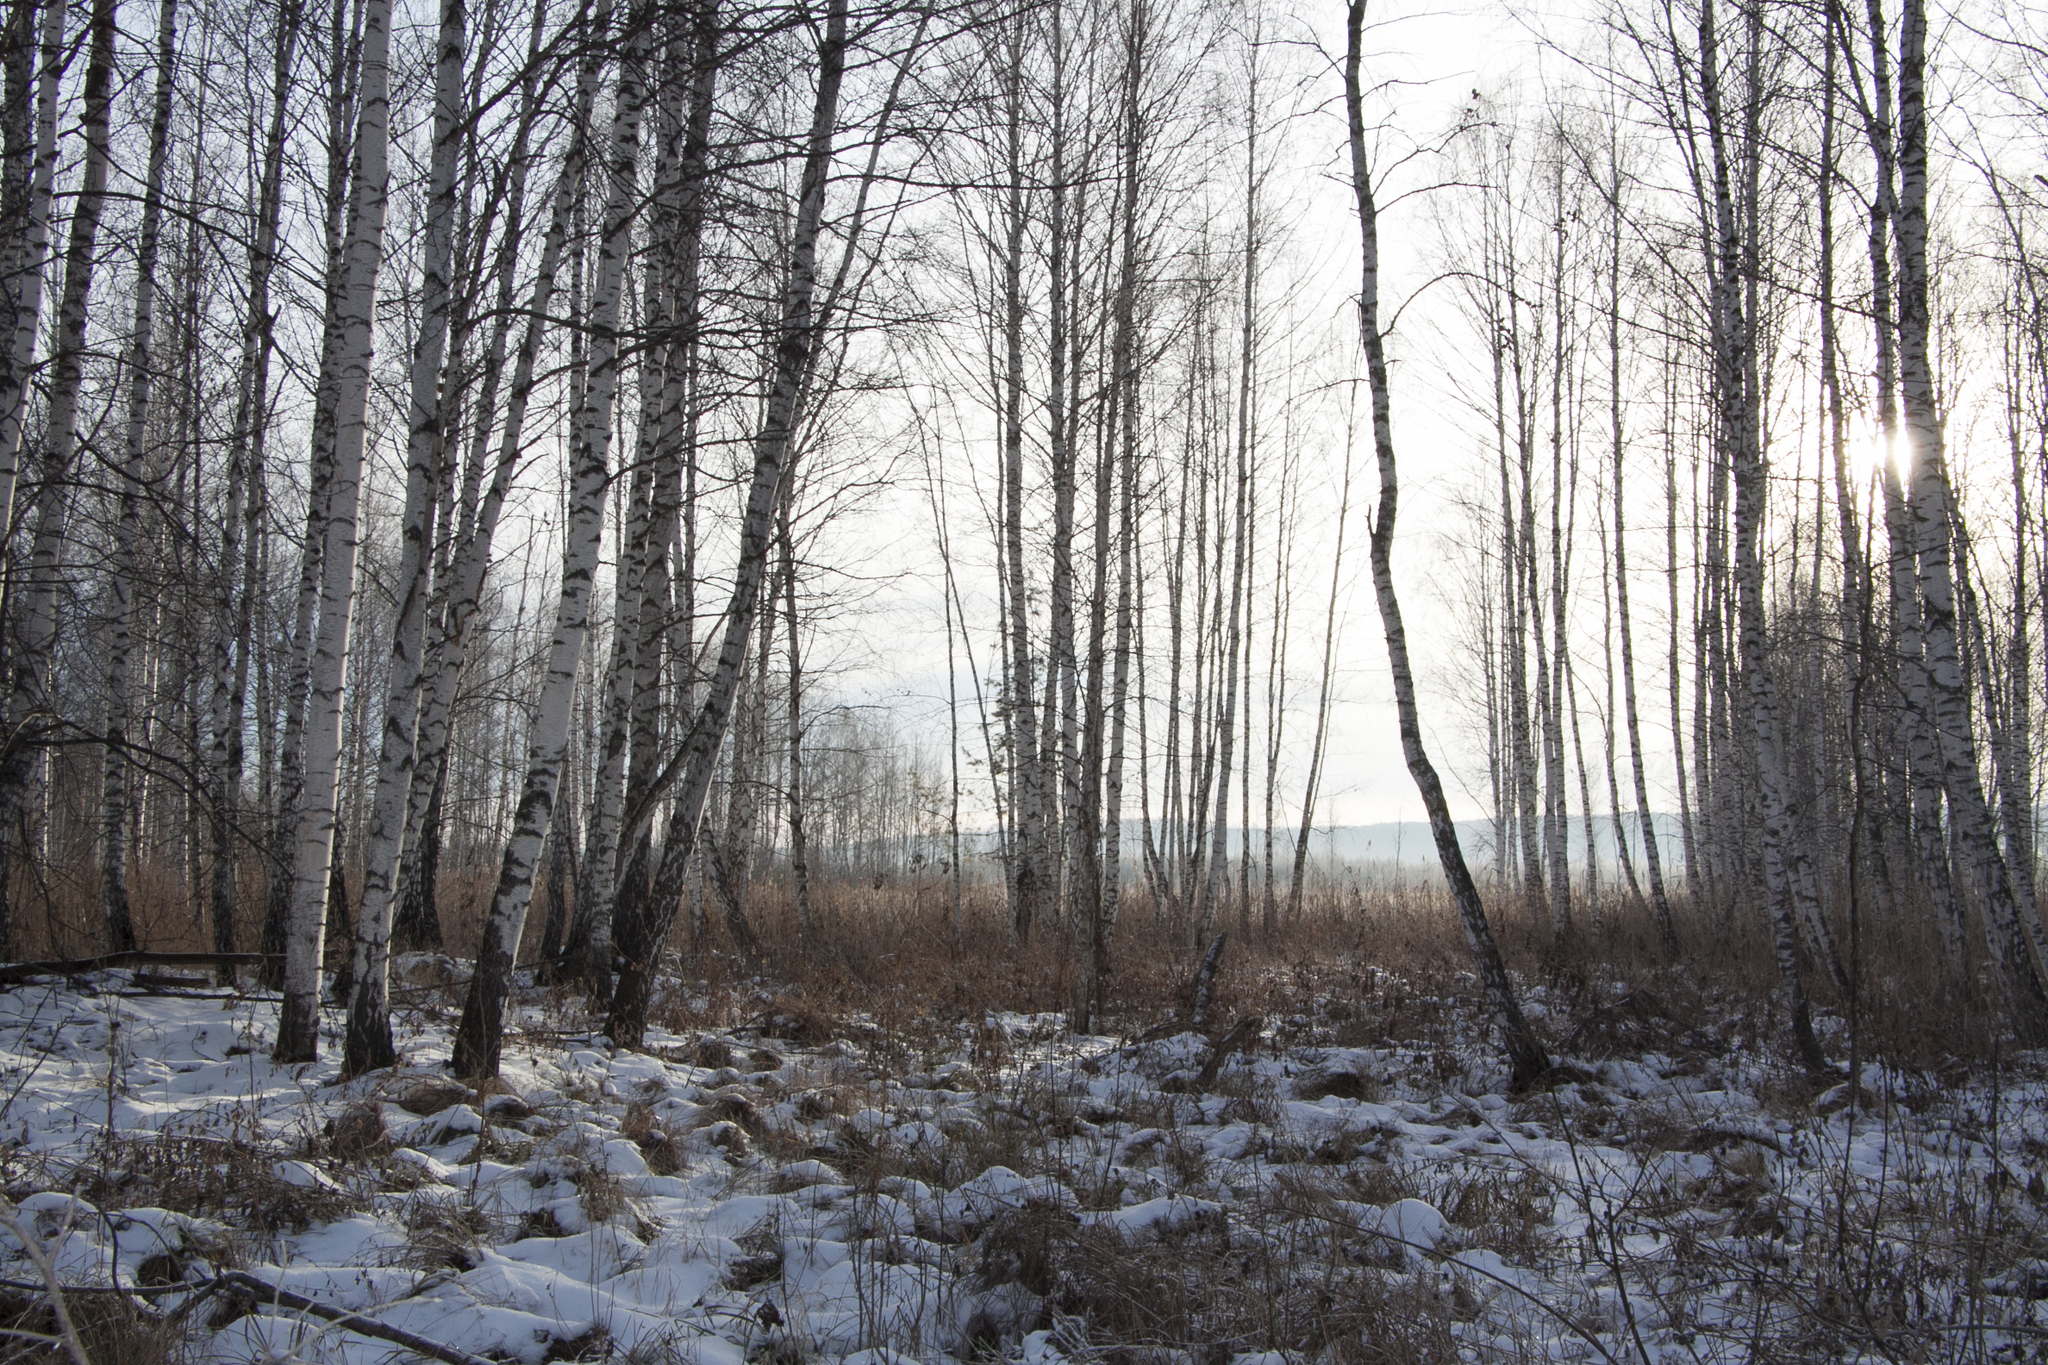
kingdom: Plantae
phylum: Tracheophyta
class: Magnoliopsida
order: Fagales
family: Betulaceae
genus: Betula
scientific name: Betula pendula
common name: Silver birch
